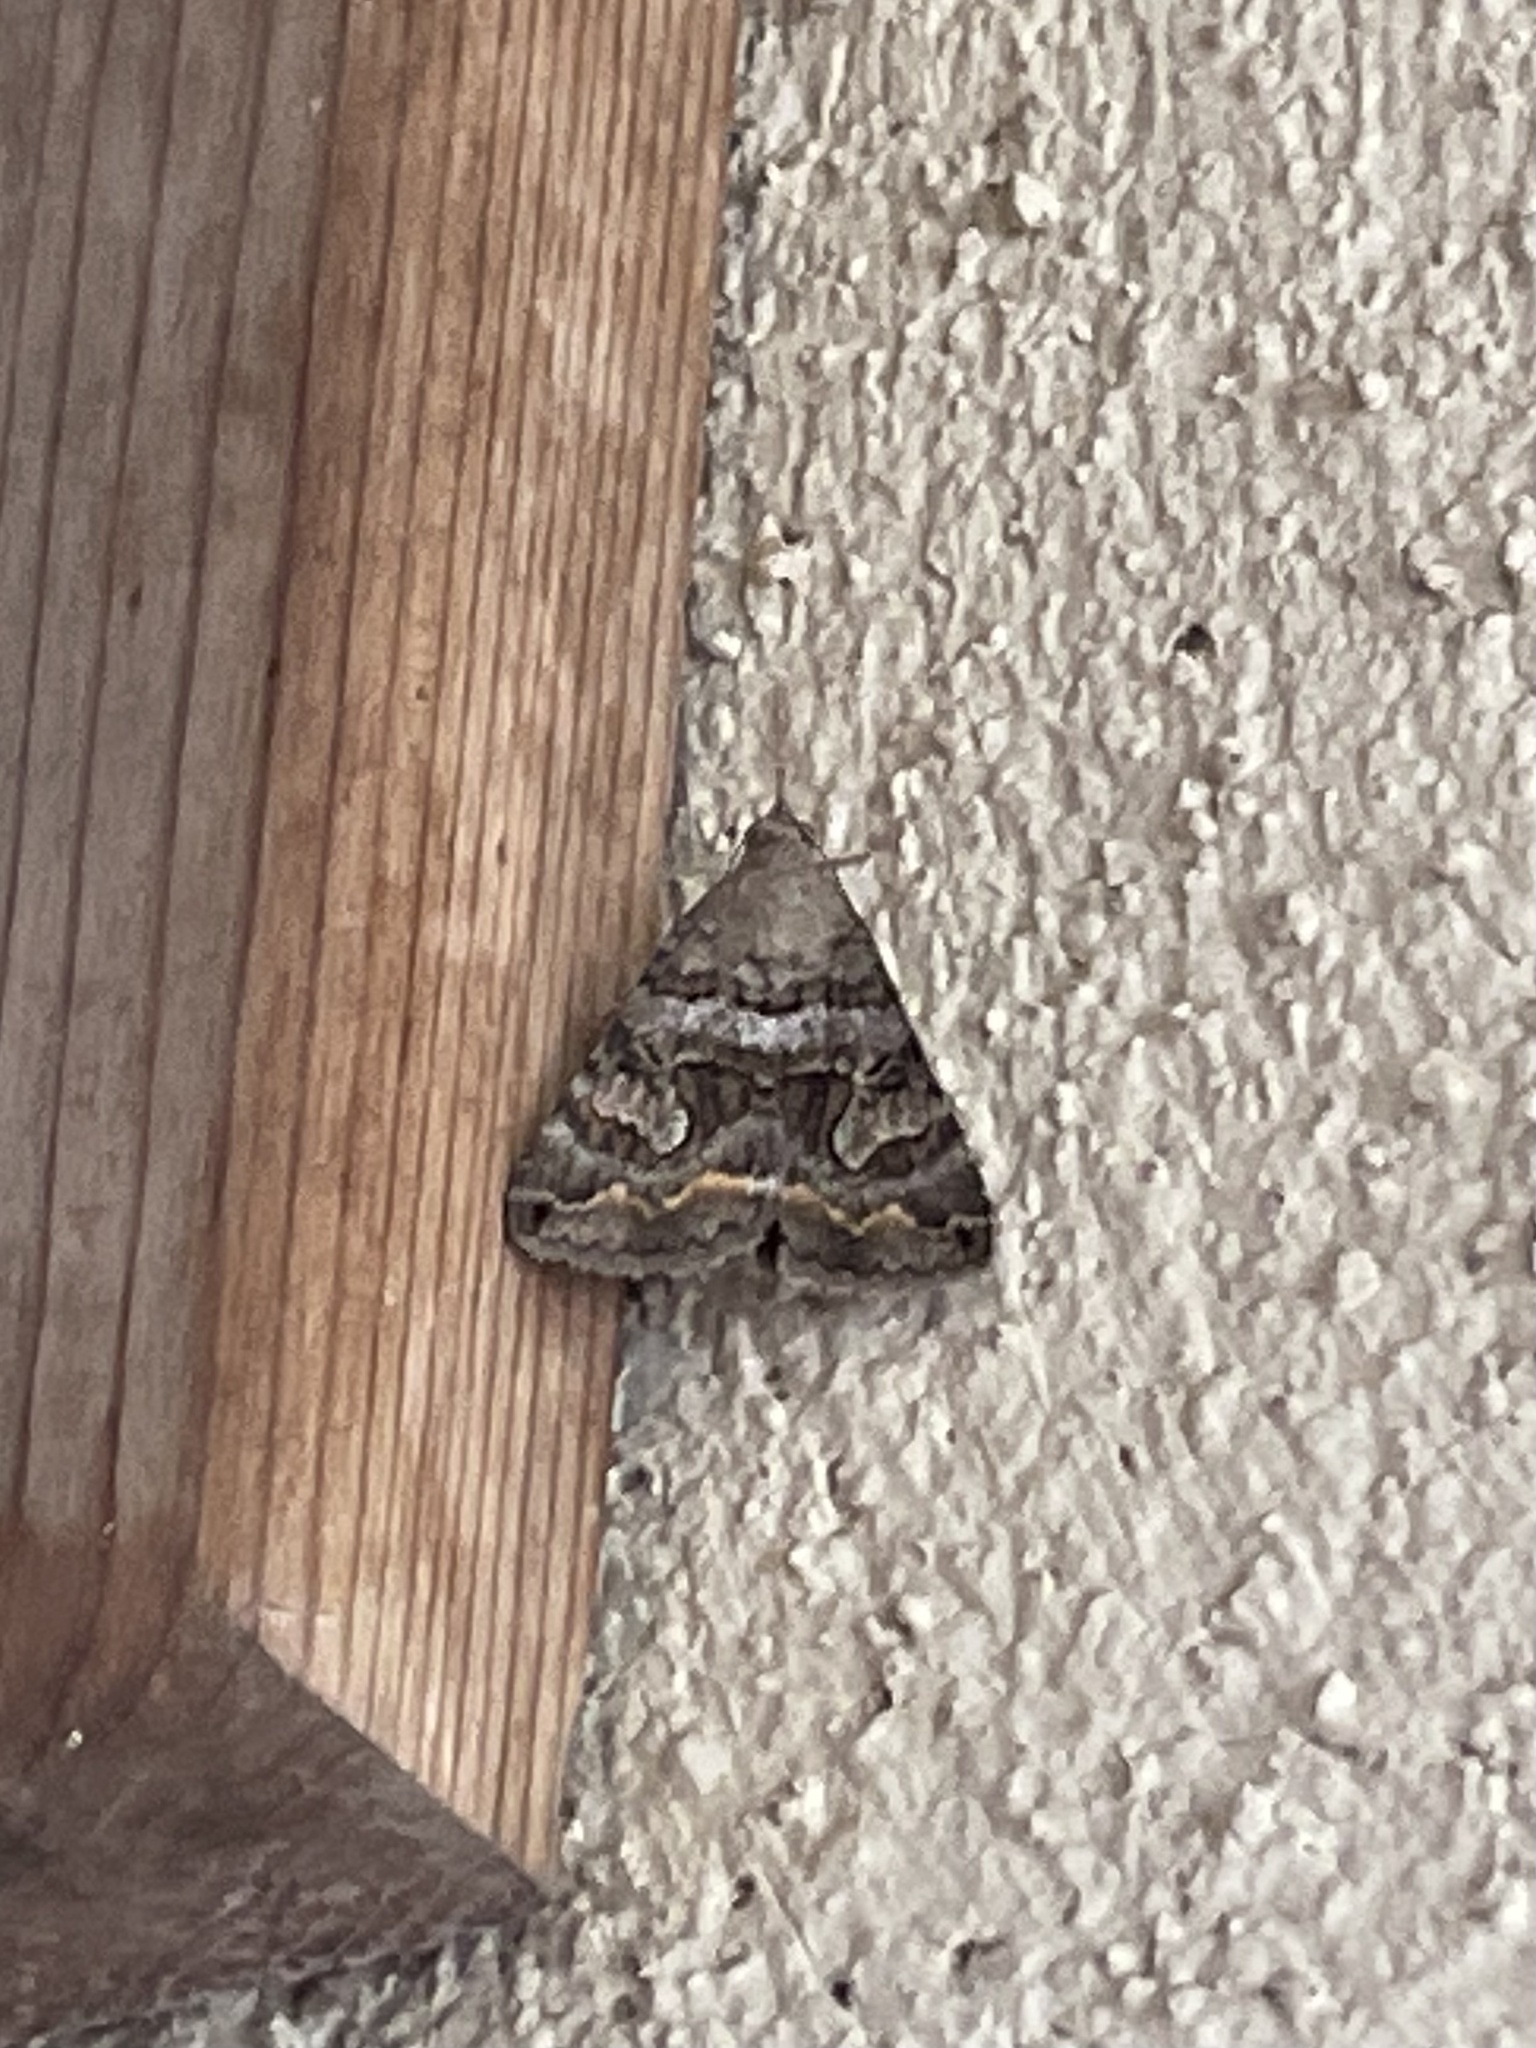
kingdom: Animalia
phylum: Arthropoda
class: Insecta
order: Lepidoptera
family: Erebidae
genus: Bulia
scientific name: Bulia deducta
